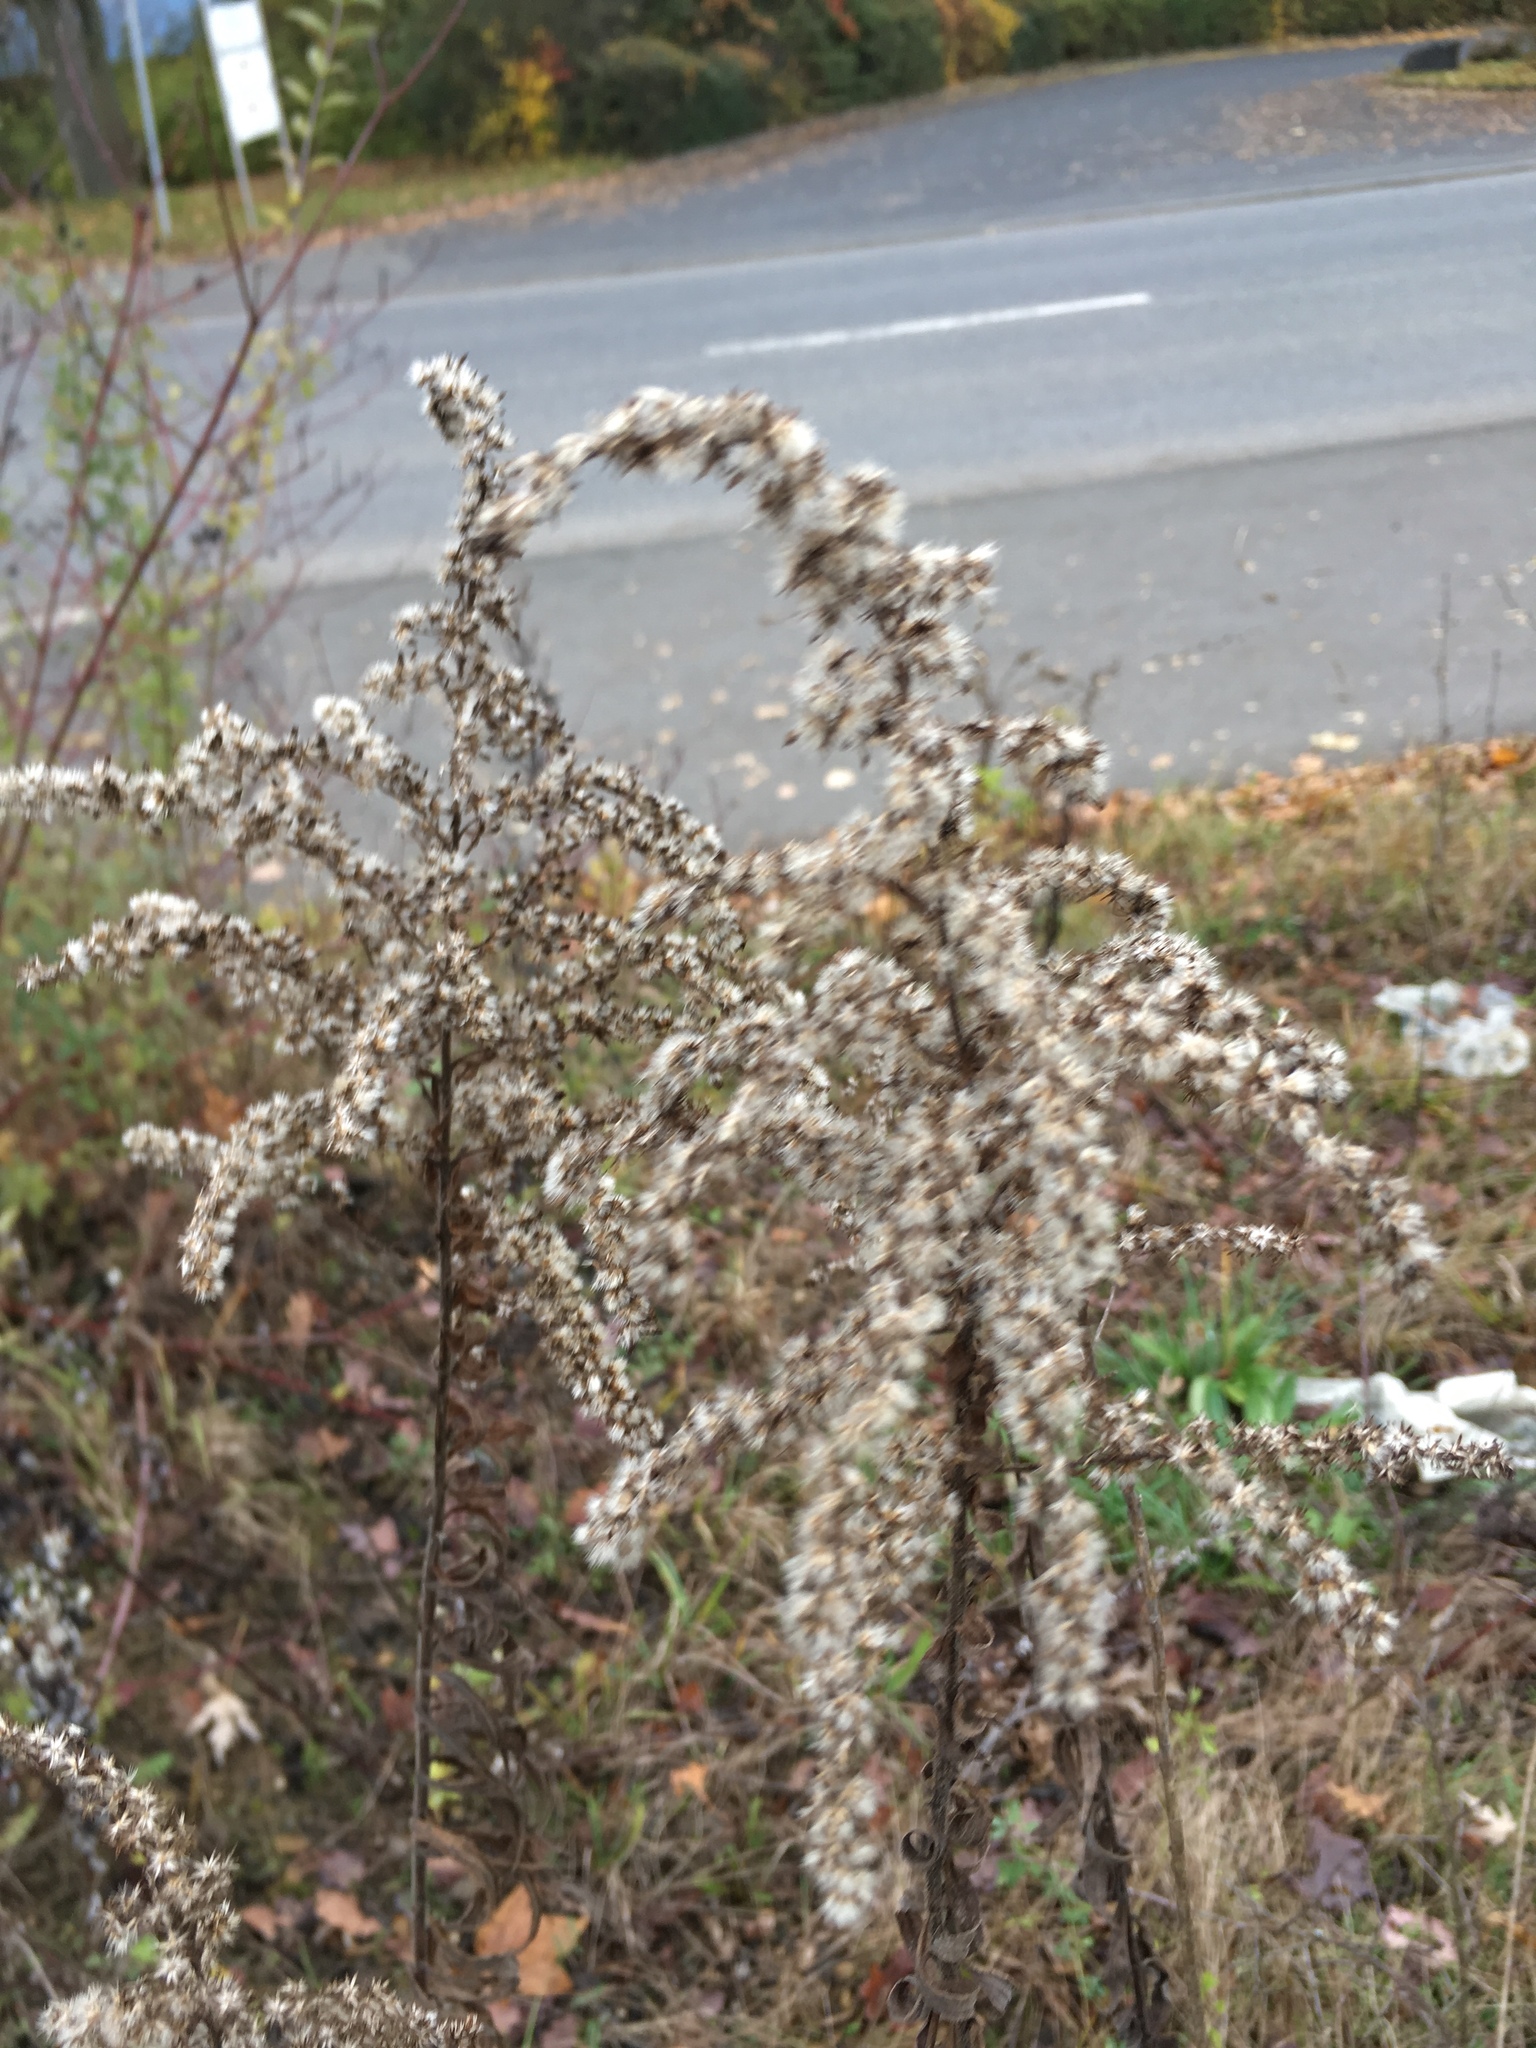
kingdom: Plantae
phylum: Tracheophyta
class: Magnoliopsida
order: Asterales
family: Asteraceae
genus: Solidago
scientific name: Solidago canadensis
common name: Canada goldenrod
